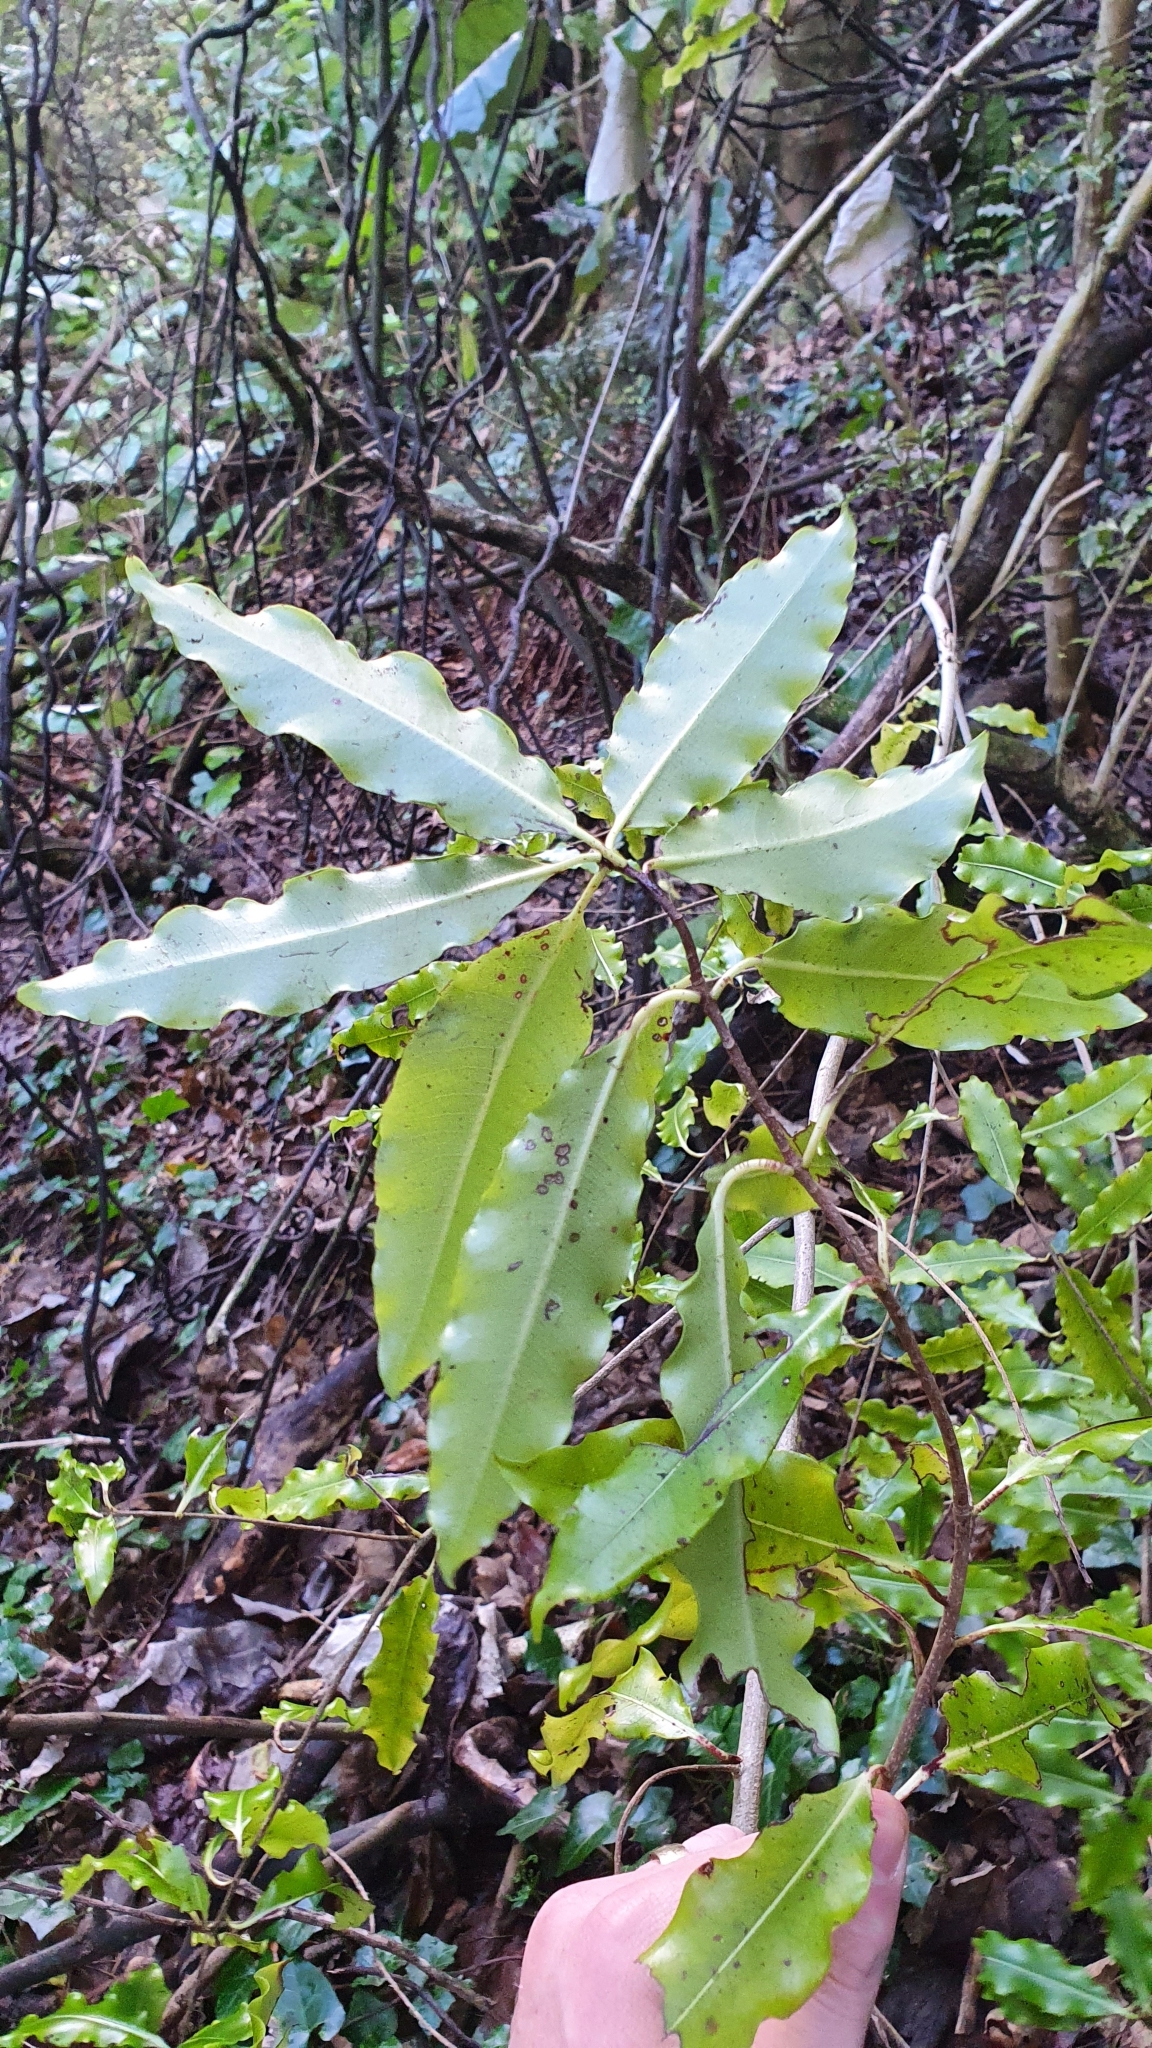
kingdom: Plantae
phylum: Tracheophyta
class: Magnoliopsida
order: Apiales
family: Pittosporaceae
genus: Pittosporum
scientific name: Pittosporum eugenioides
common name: Lemonwood
